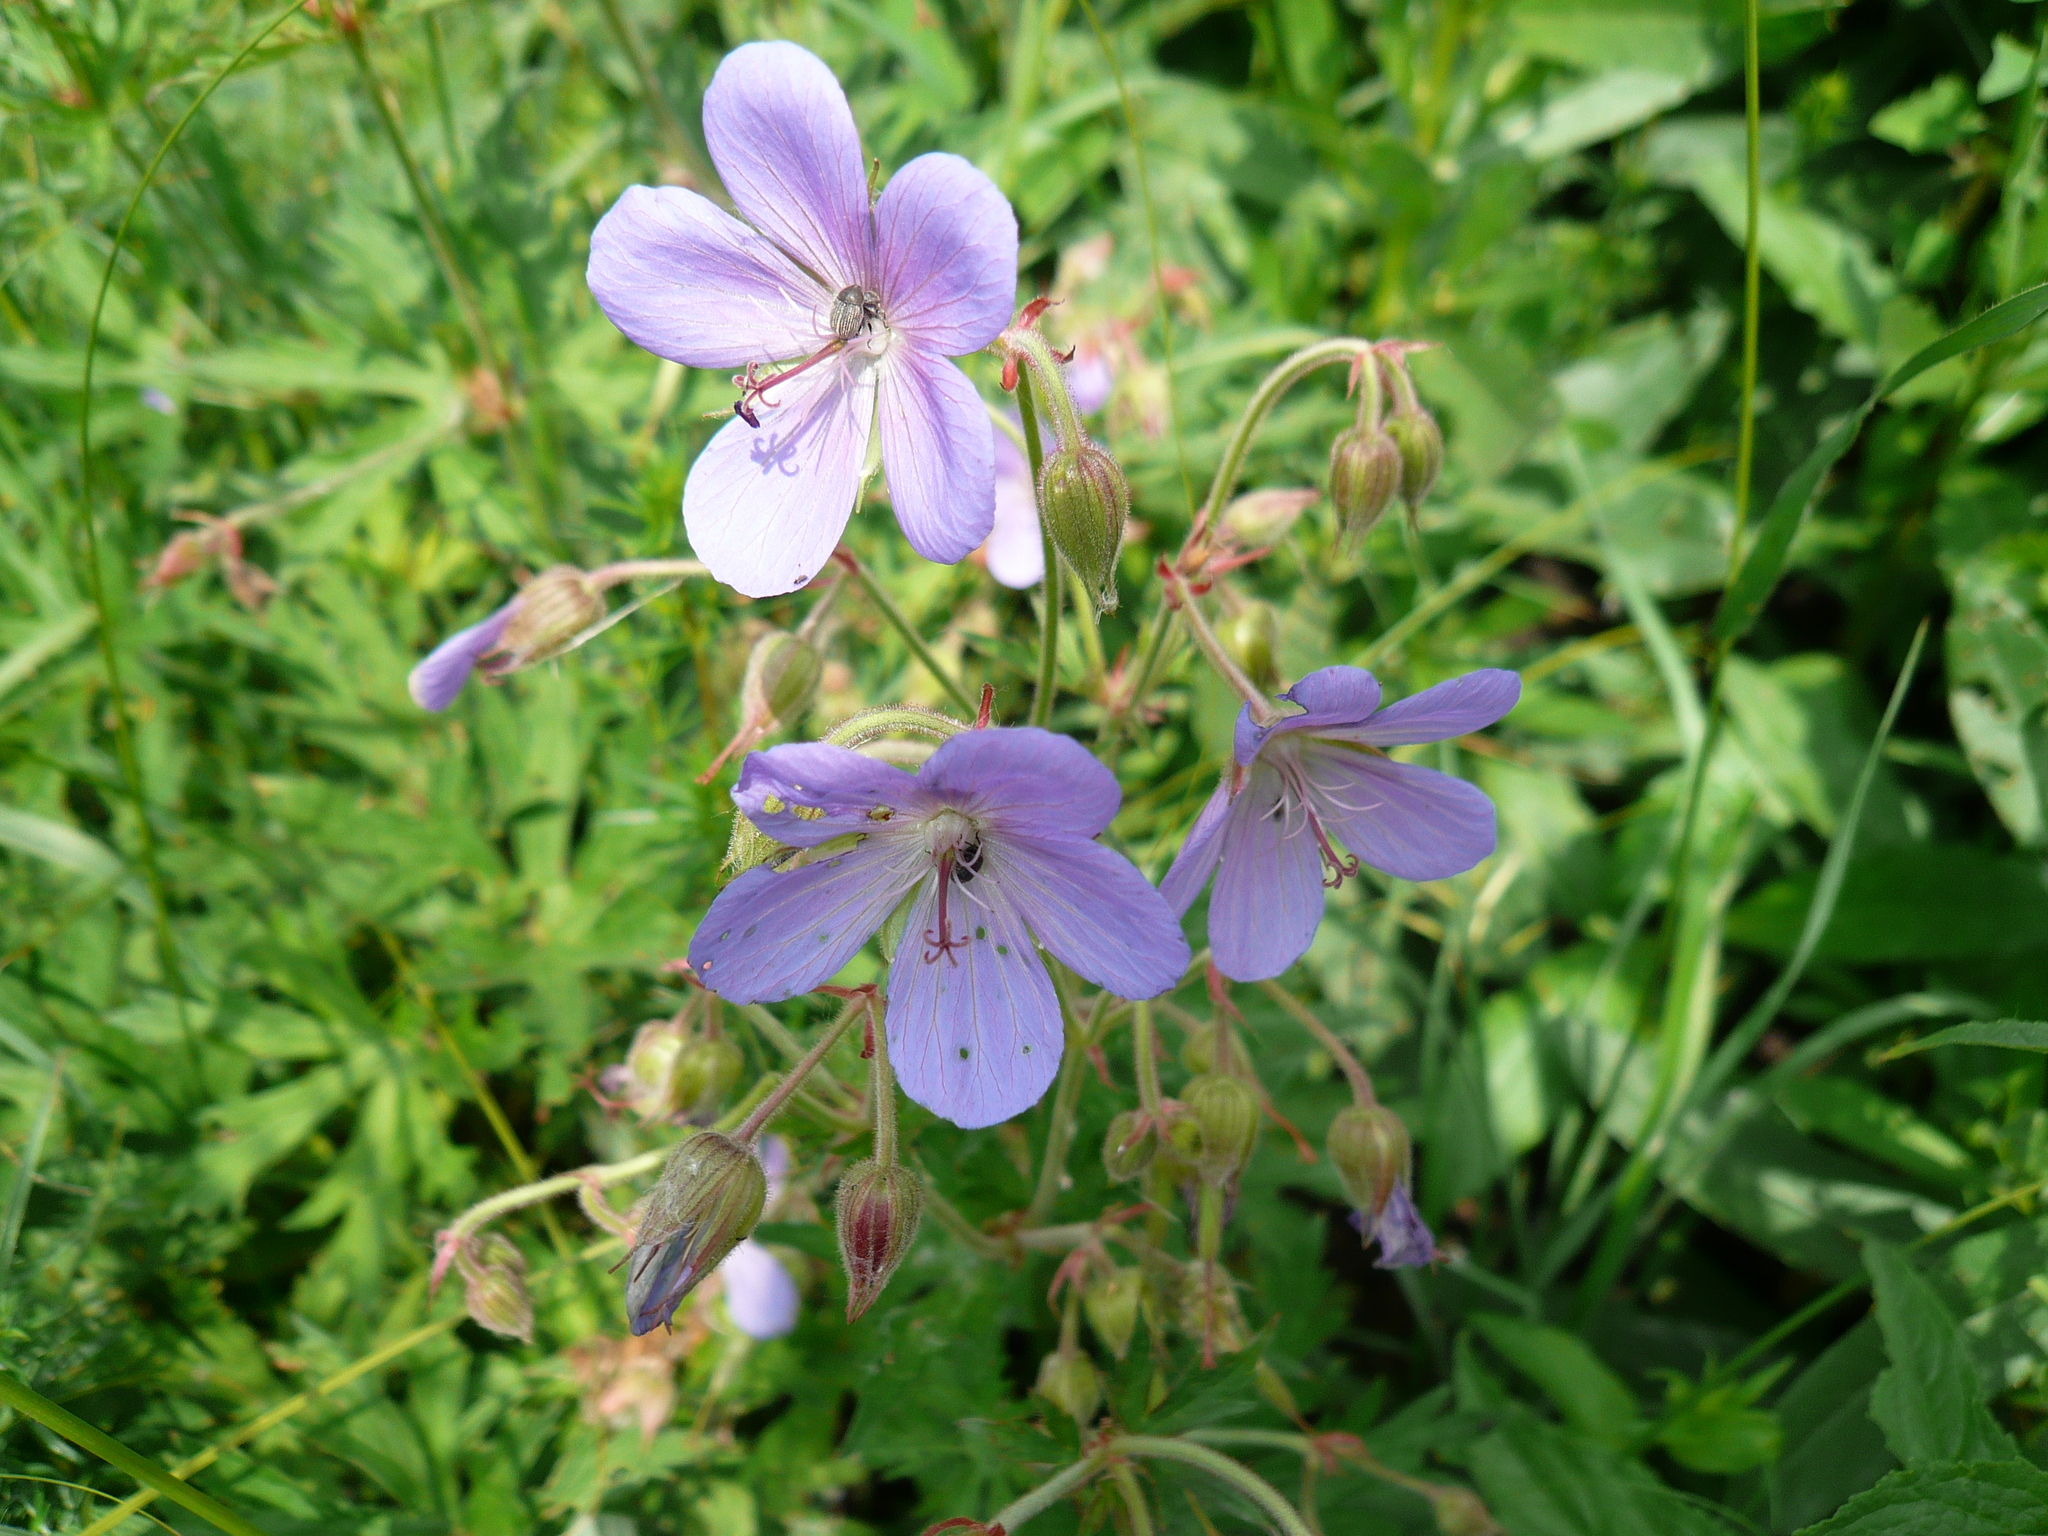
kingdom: Plantae
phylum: Tracheophyta
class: Magnoliopsida
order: Geraniales
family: Geraniaceae
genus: Geranium
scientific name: Geranium pratense
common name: Meadow crane's-bill
